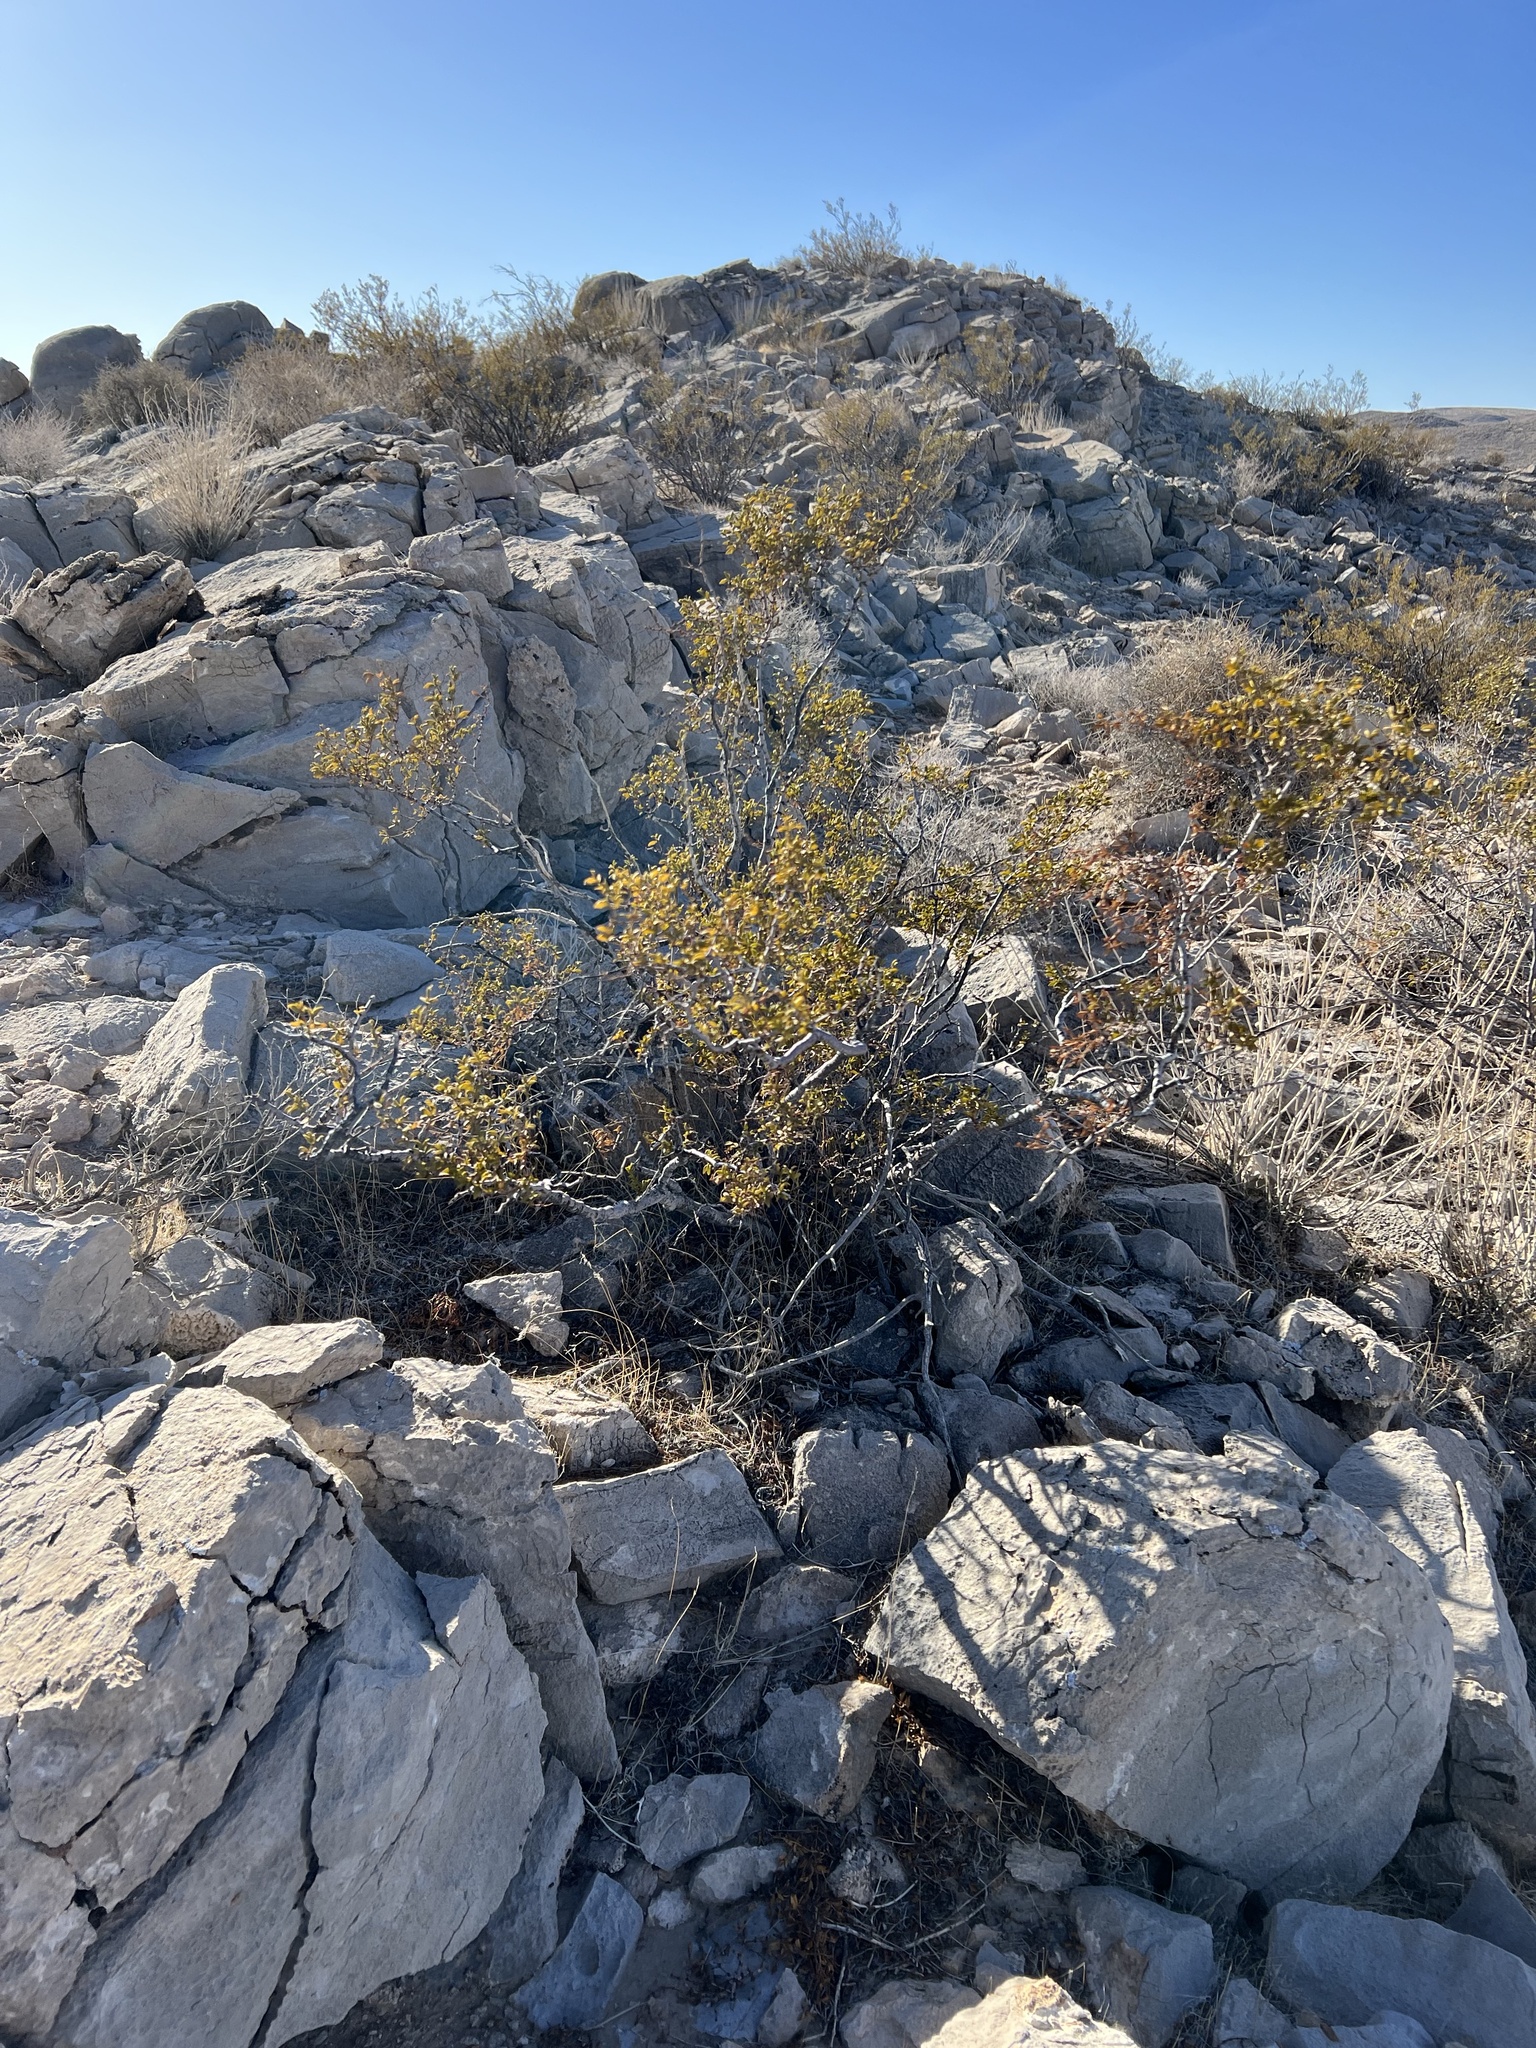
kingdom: Plantae
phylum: Tracheophyta
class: Magnoliopsida
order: Zygophyllales
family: Zygophyllaceae
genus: Larrea
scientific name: Larrea tridentata
